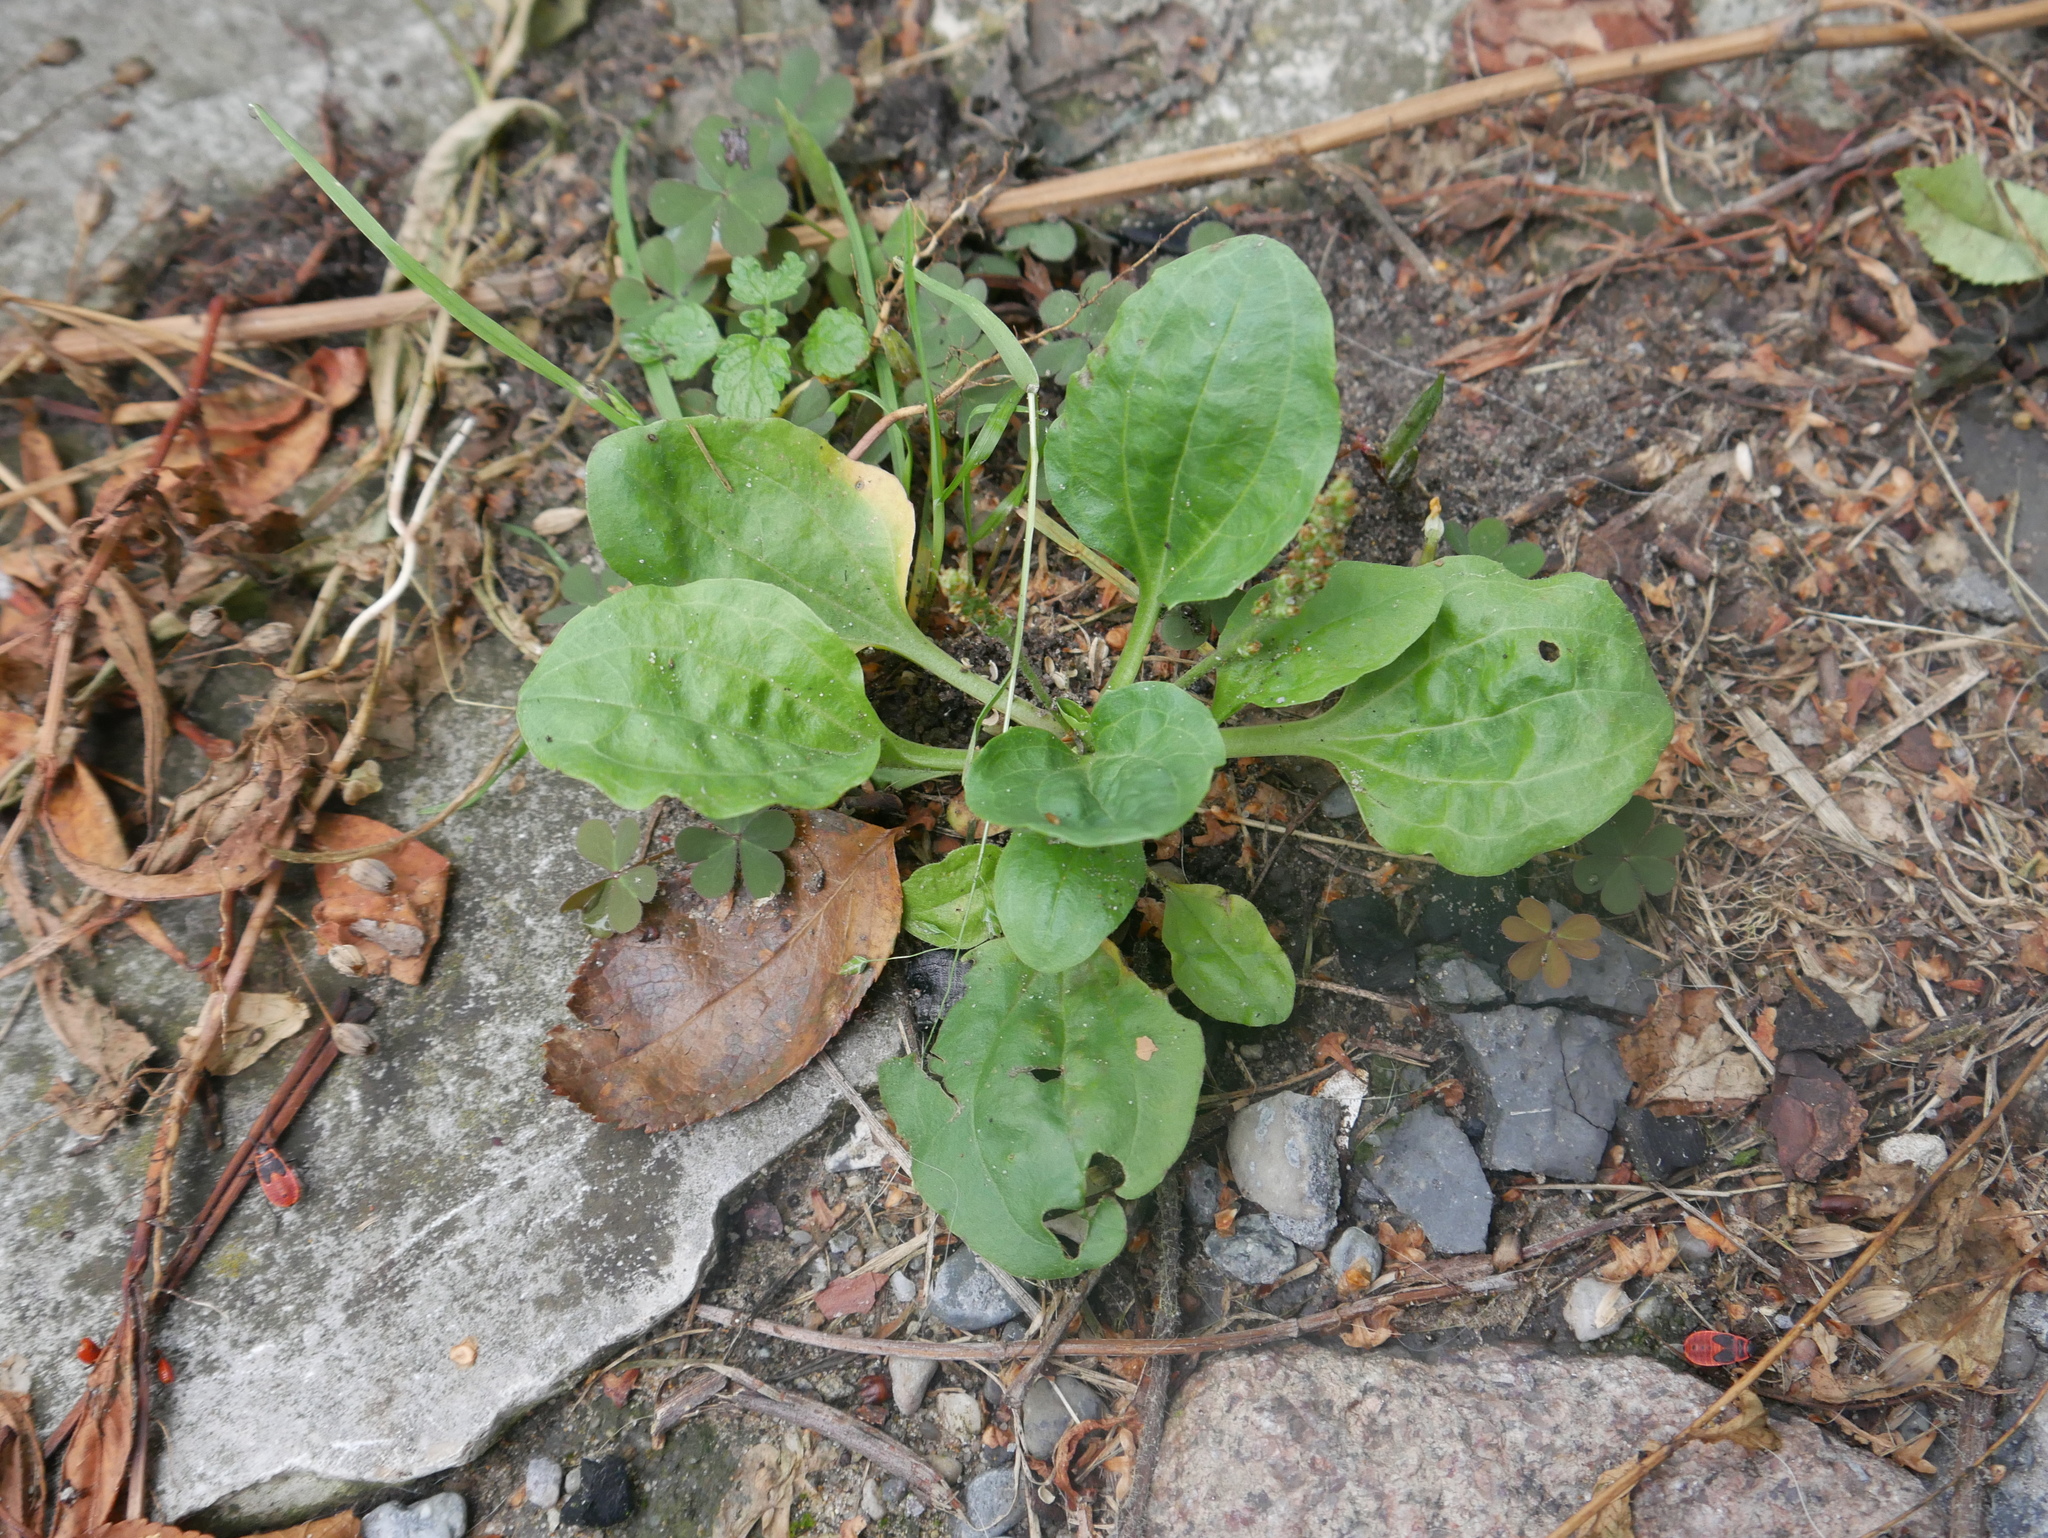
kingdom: Plantae
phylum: Tracheophyta
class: Magnoliopsida
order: Lamiales
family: Plantaginaceae
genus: Plantago
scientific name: Plantago major
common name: Common plantain
